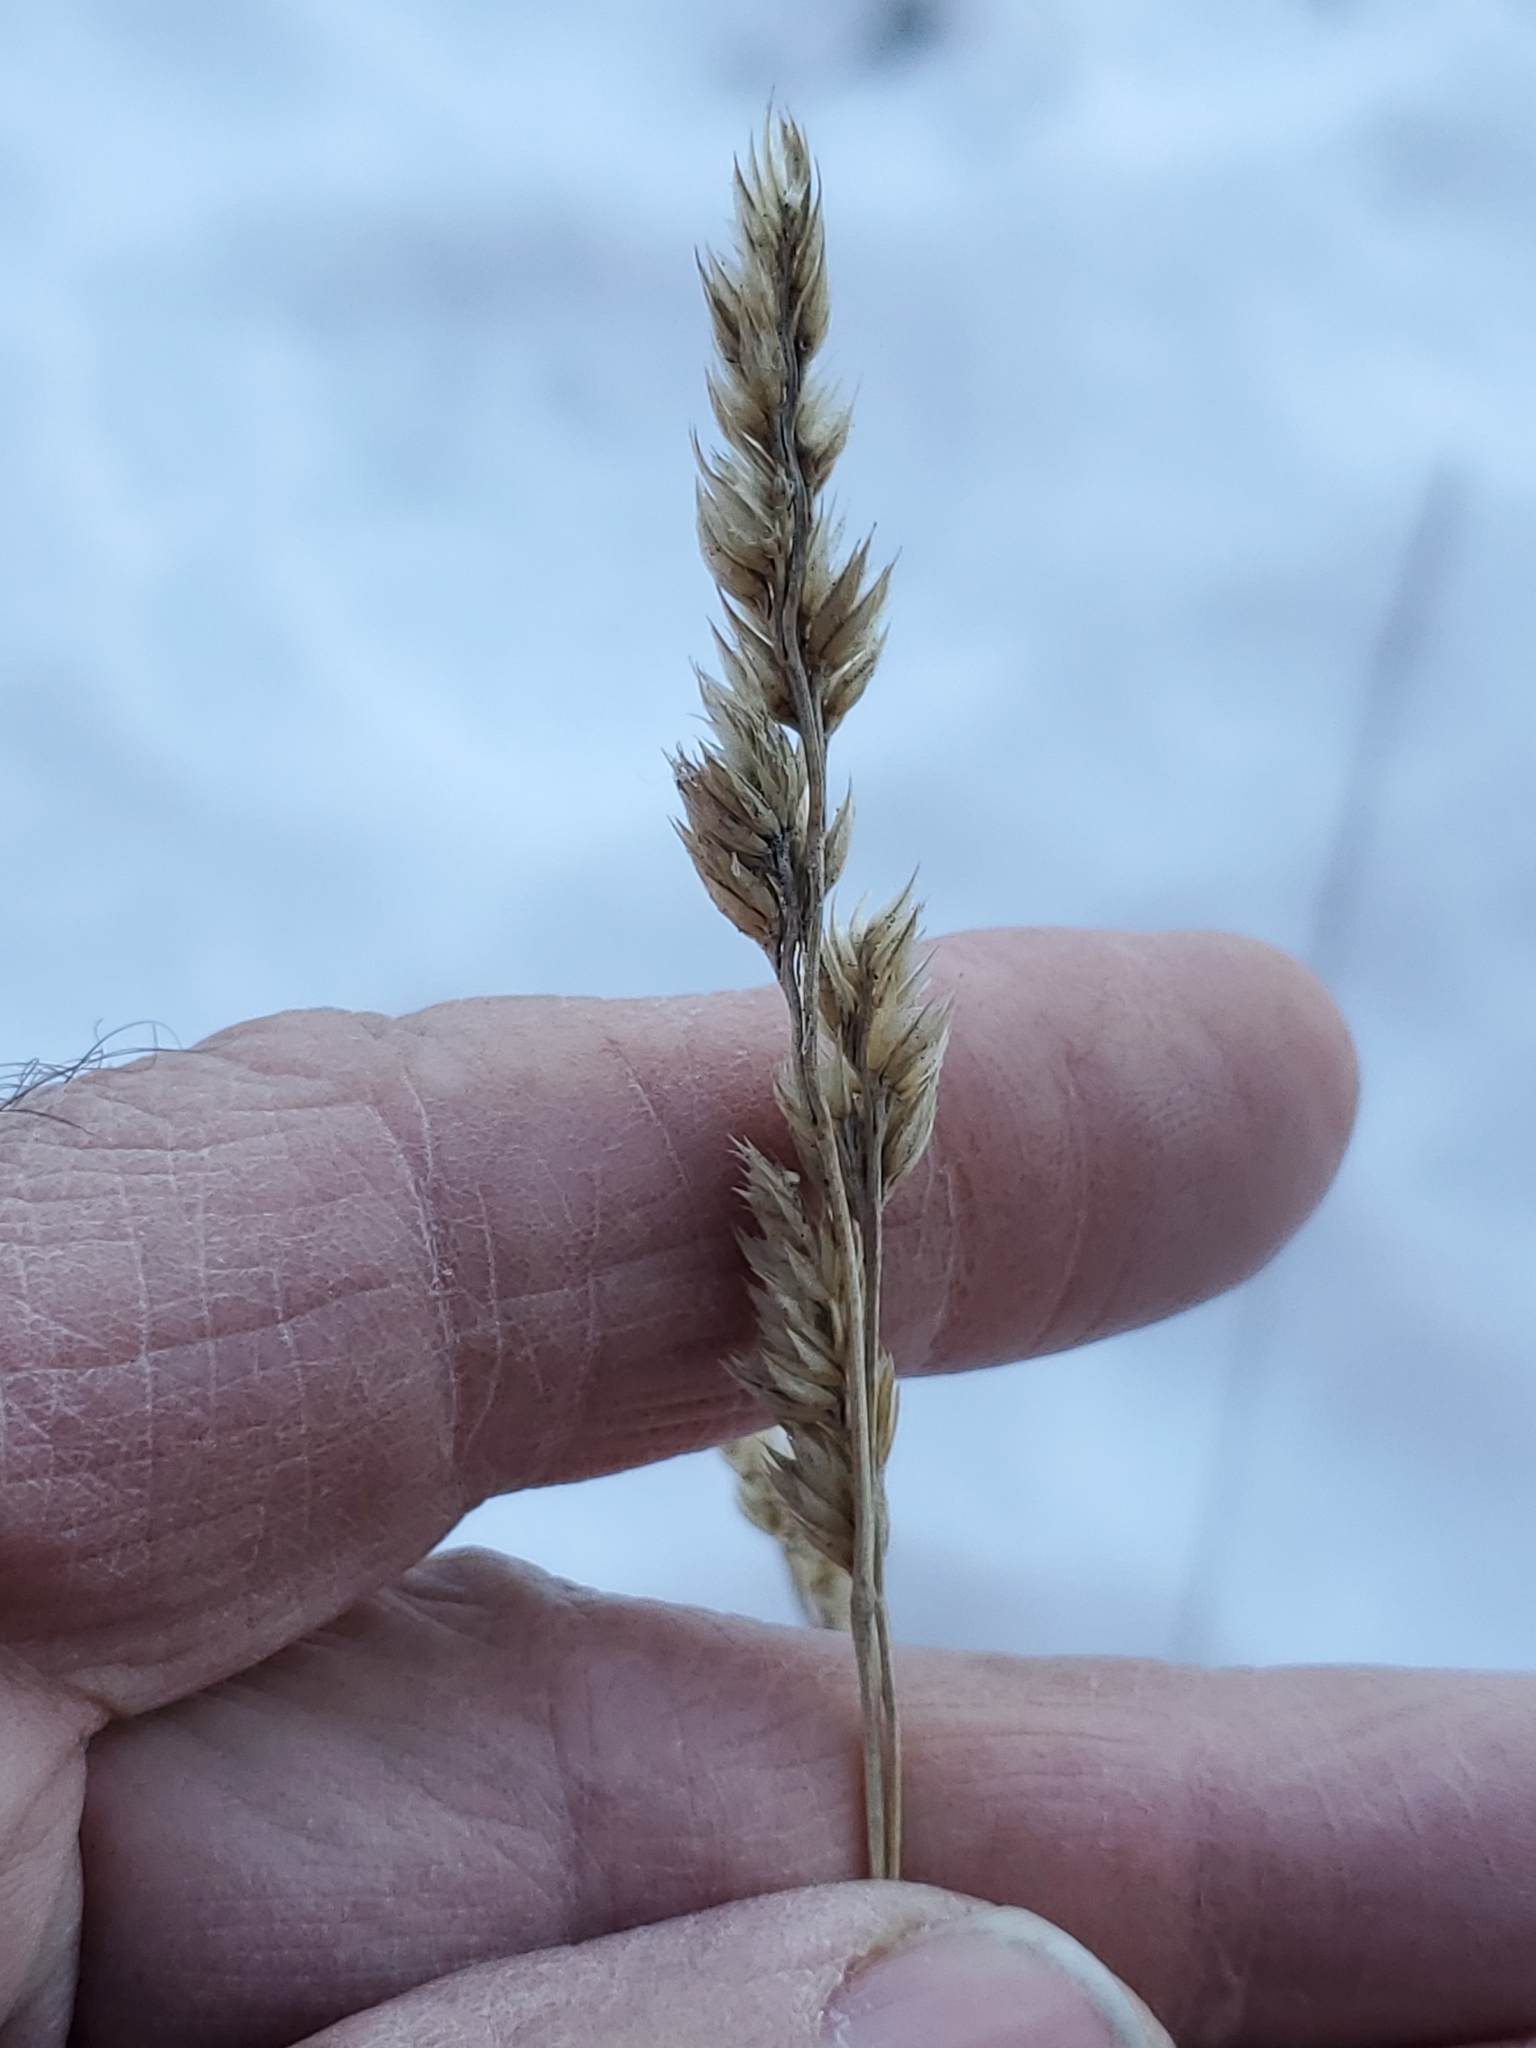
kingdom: Plantae
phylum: Tracheophyta
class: Liliopsida
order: Poales
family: Poaceae
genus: Dactylis
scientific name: Dactylis glomerata
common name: Orchardgrass
